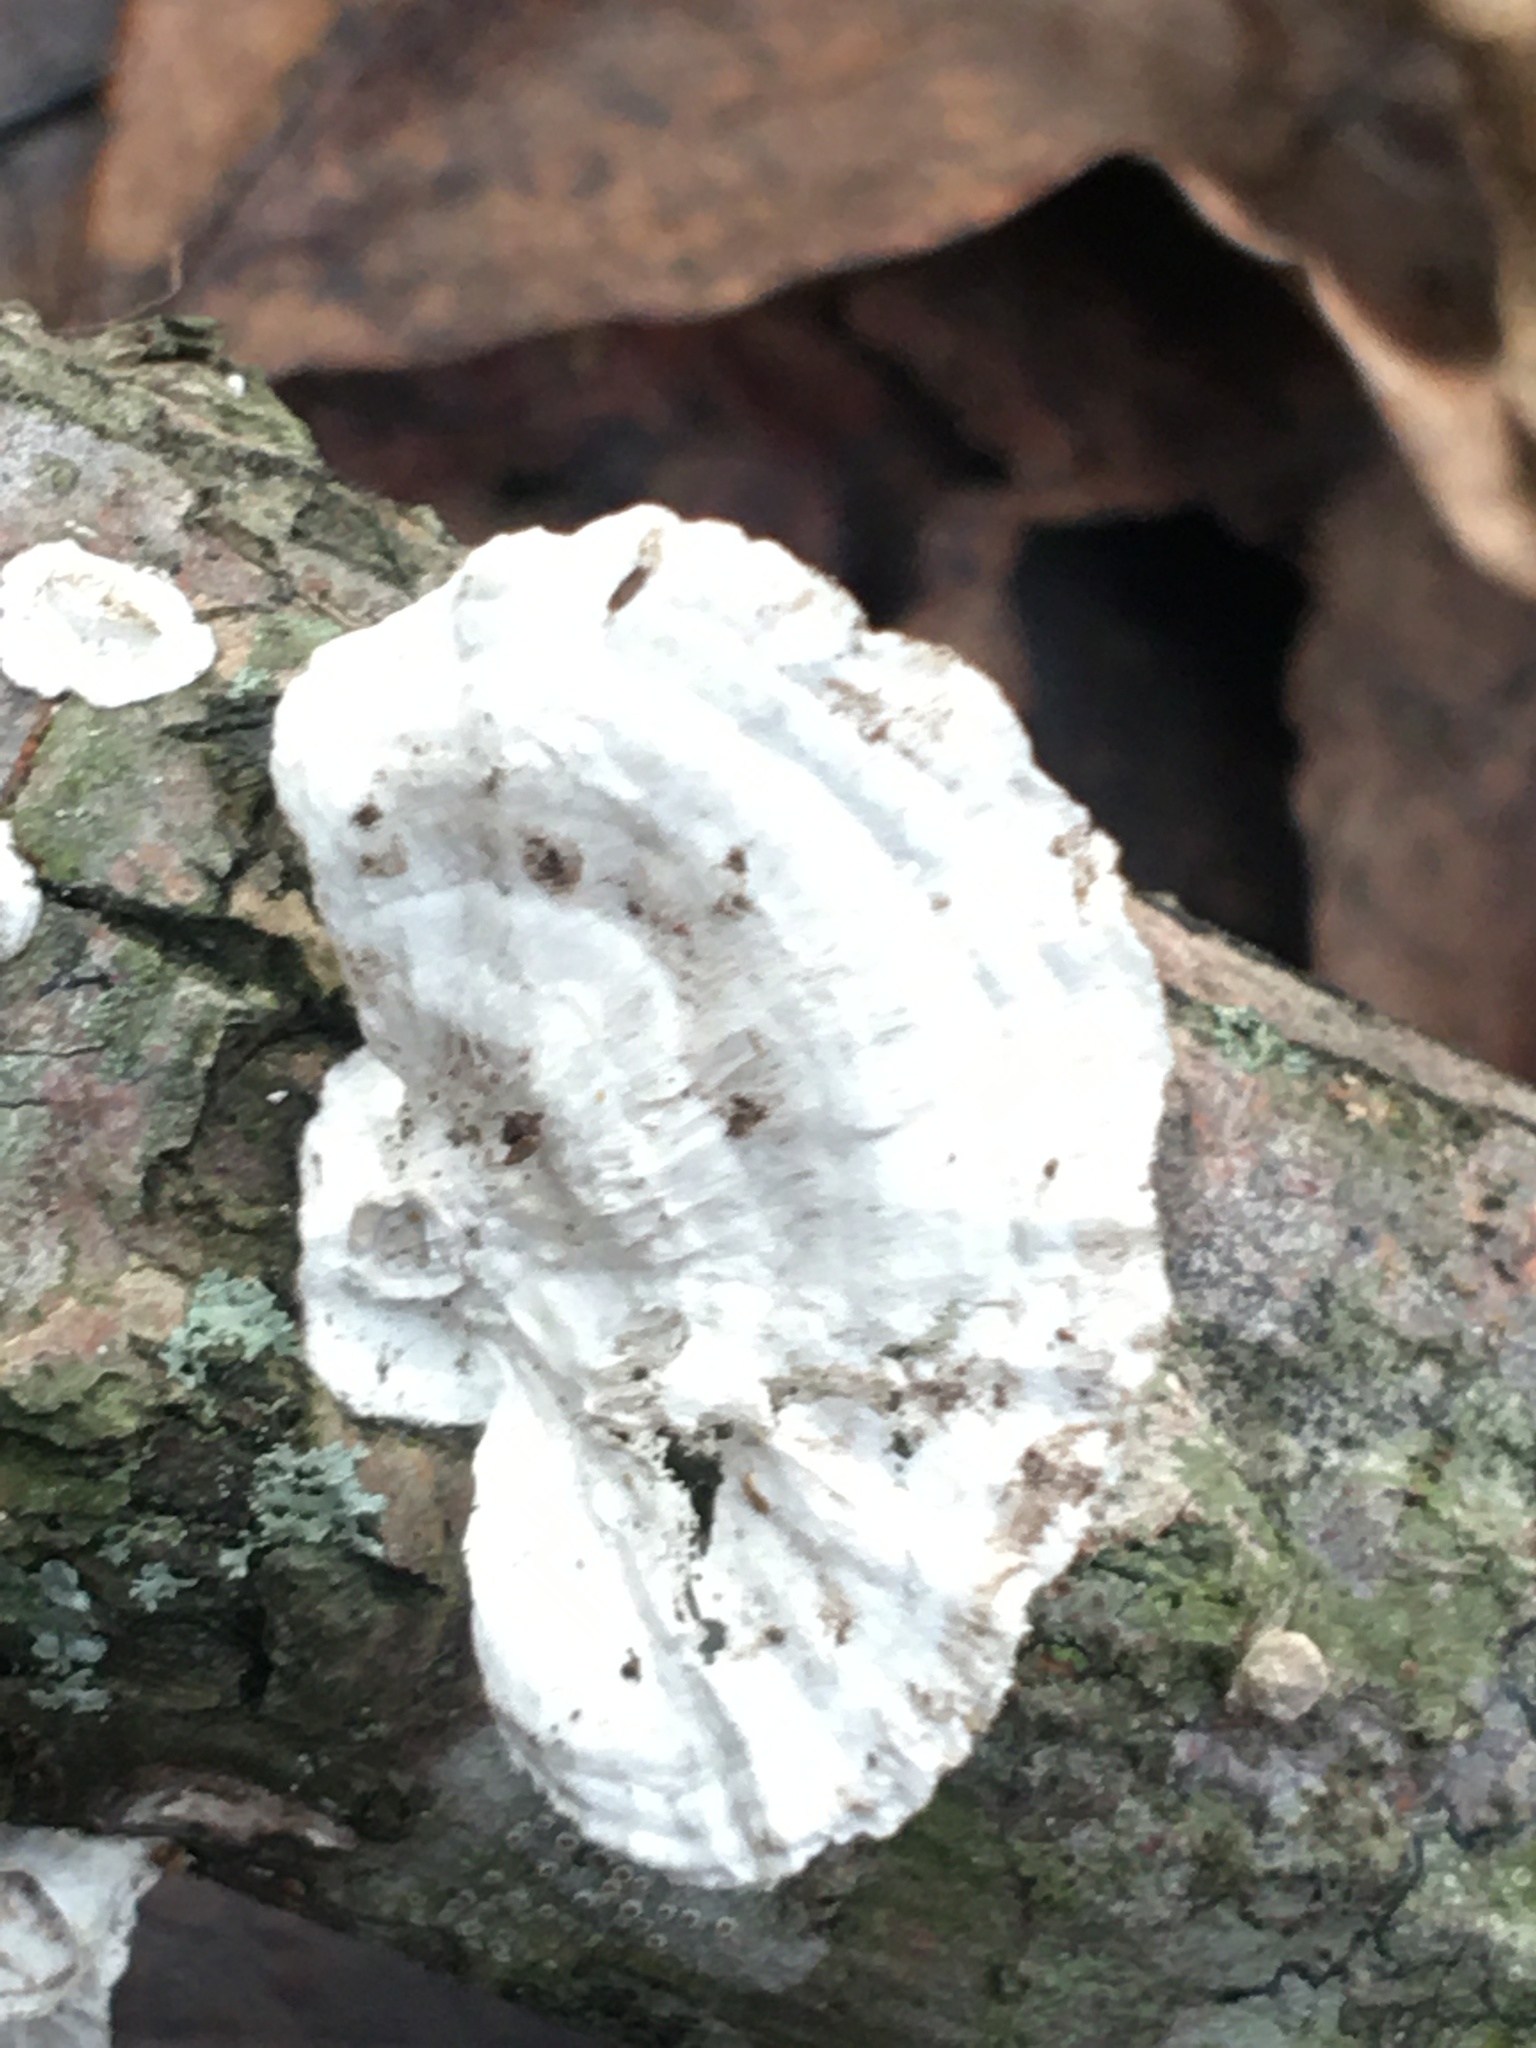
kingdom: Fungi
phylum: Basidiomycota
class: Agaricomycetes
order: Polyporales
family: Polyporaceae
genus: Poronidulus
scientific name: Poronidulus conchifer
